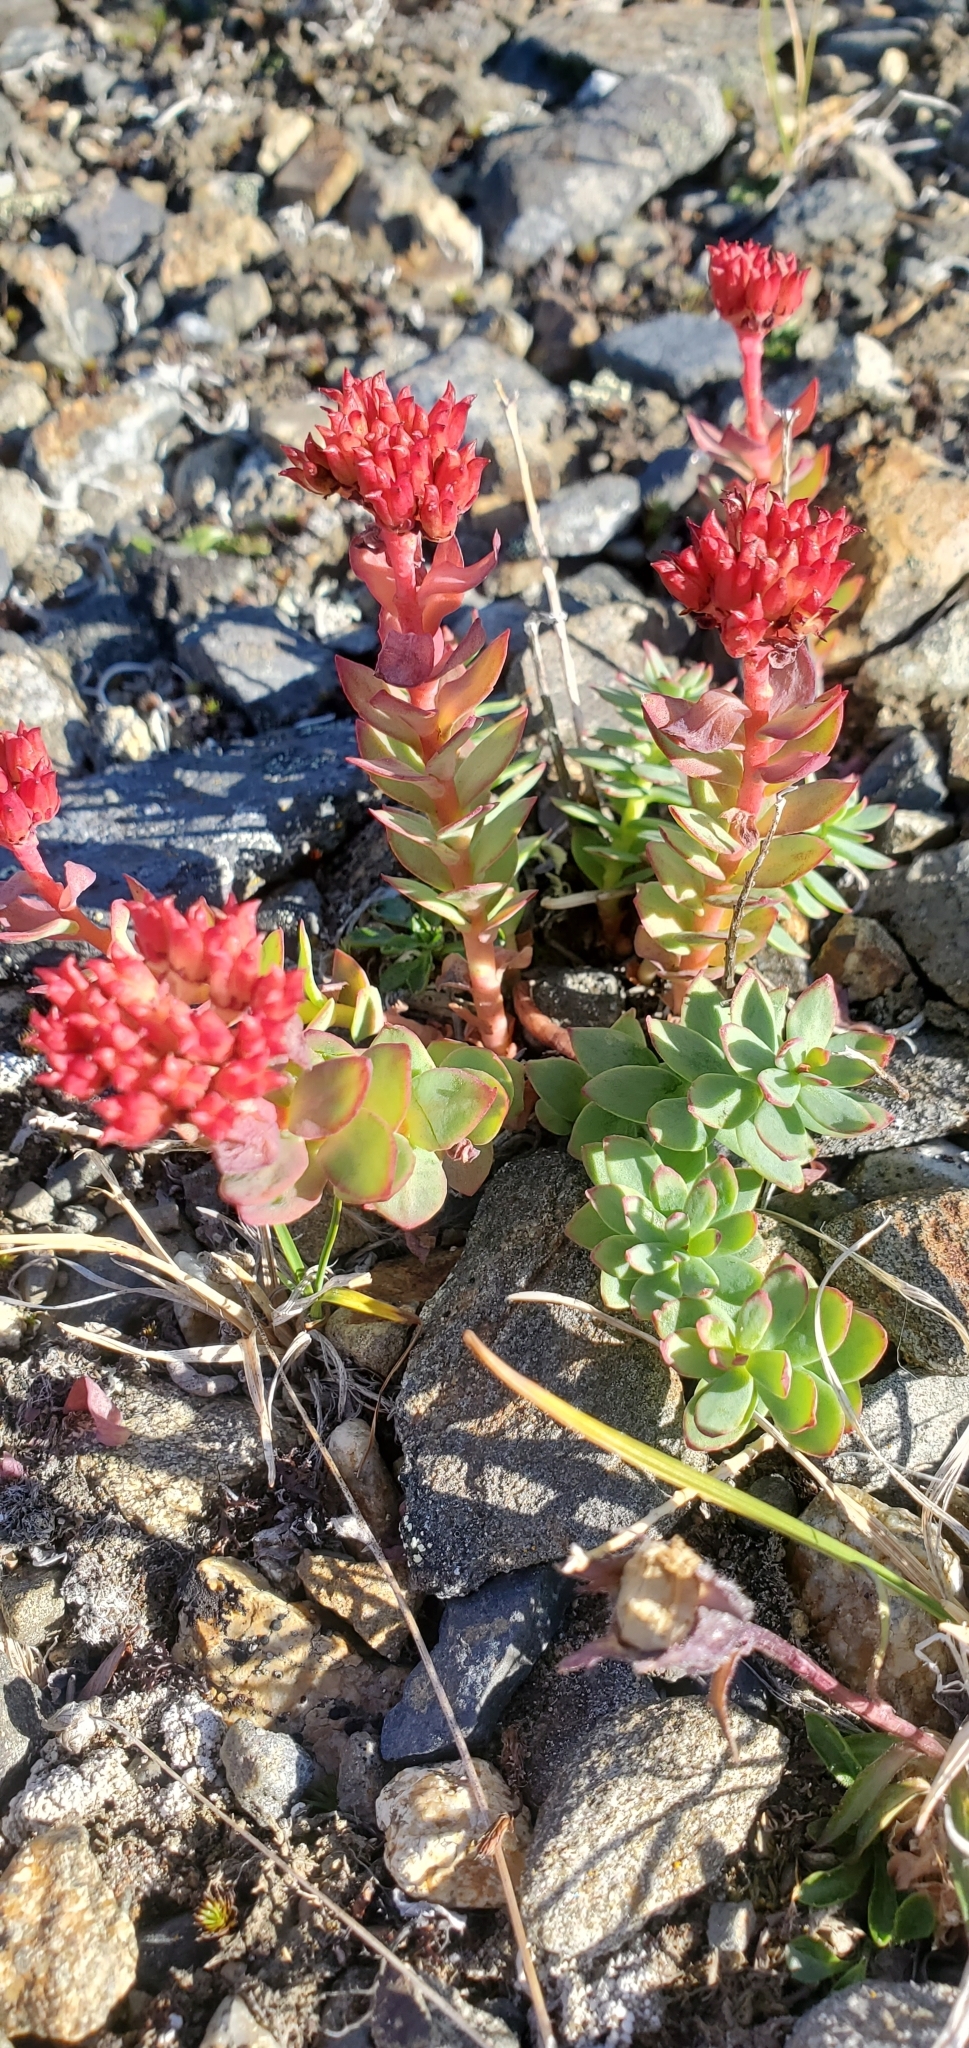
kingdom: Plantae
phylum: Tracheophyta
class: Magnoliopsida
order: Saxifragales
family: Crassulaceae
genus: Rhodiola
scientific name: Rhodiola integrifolia
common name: Western roseroot
